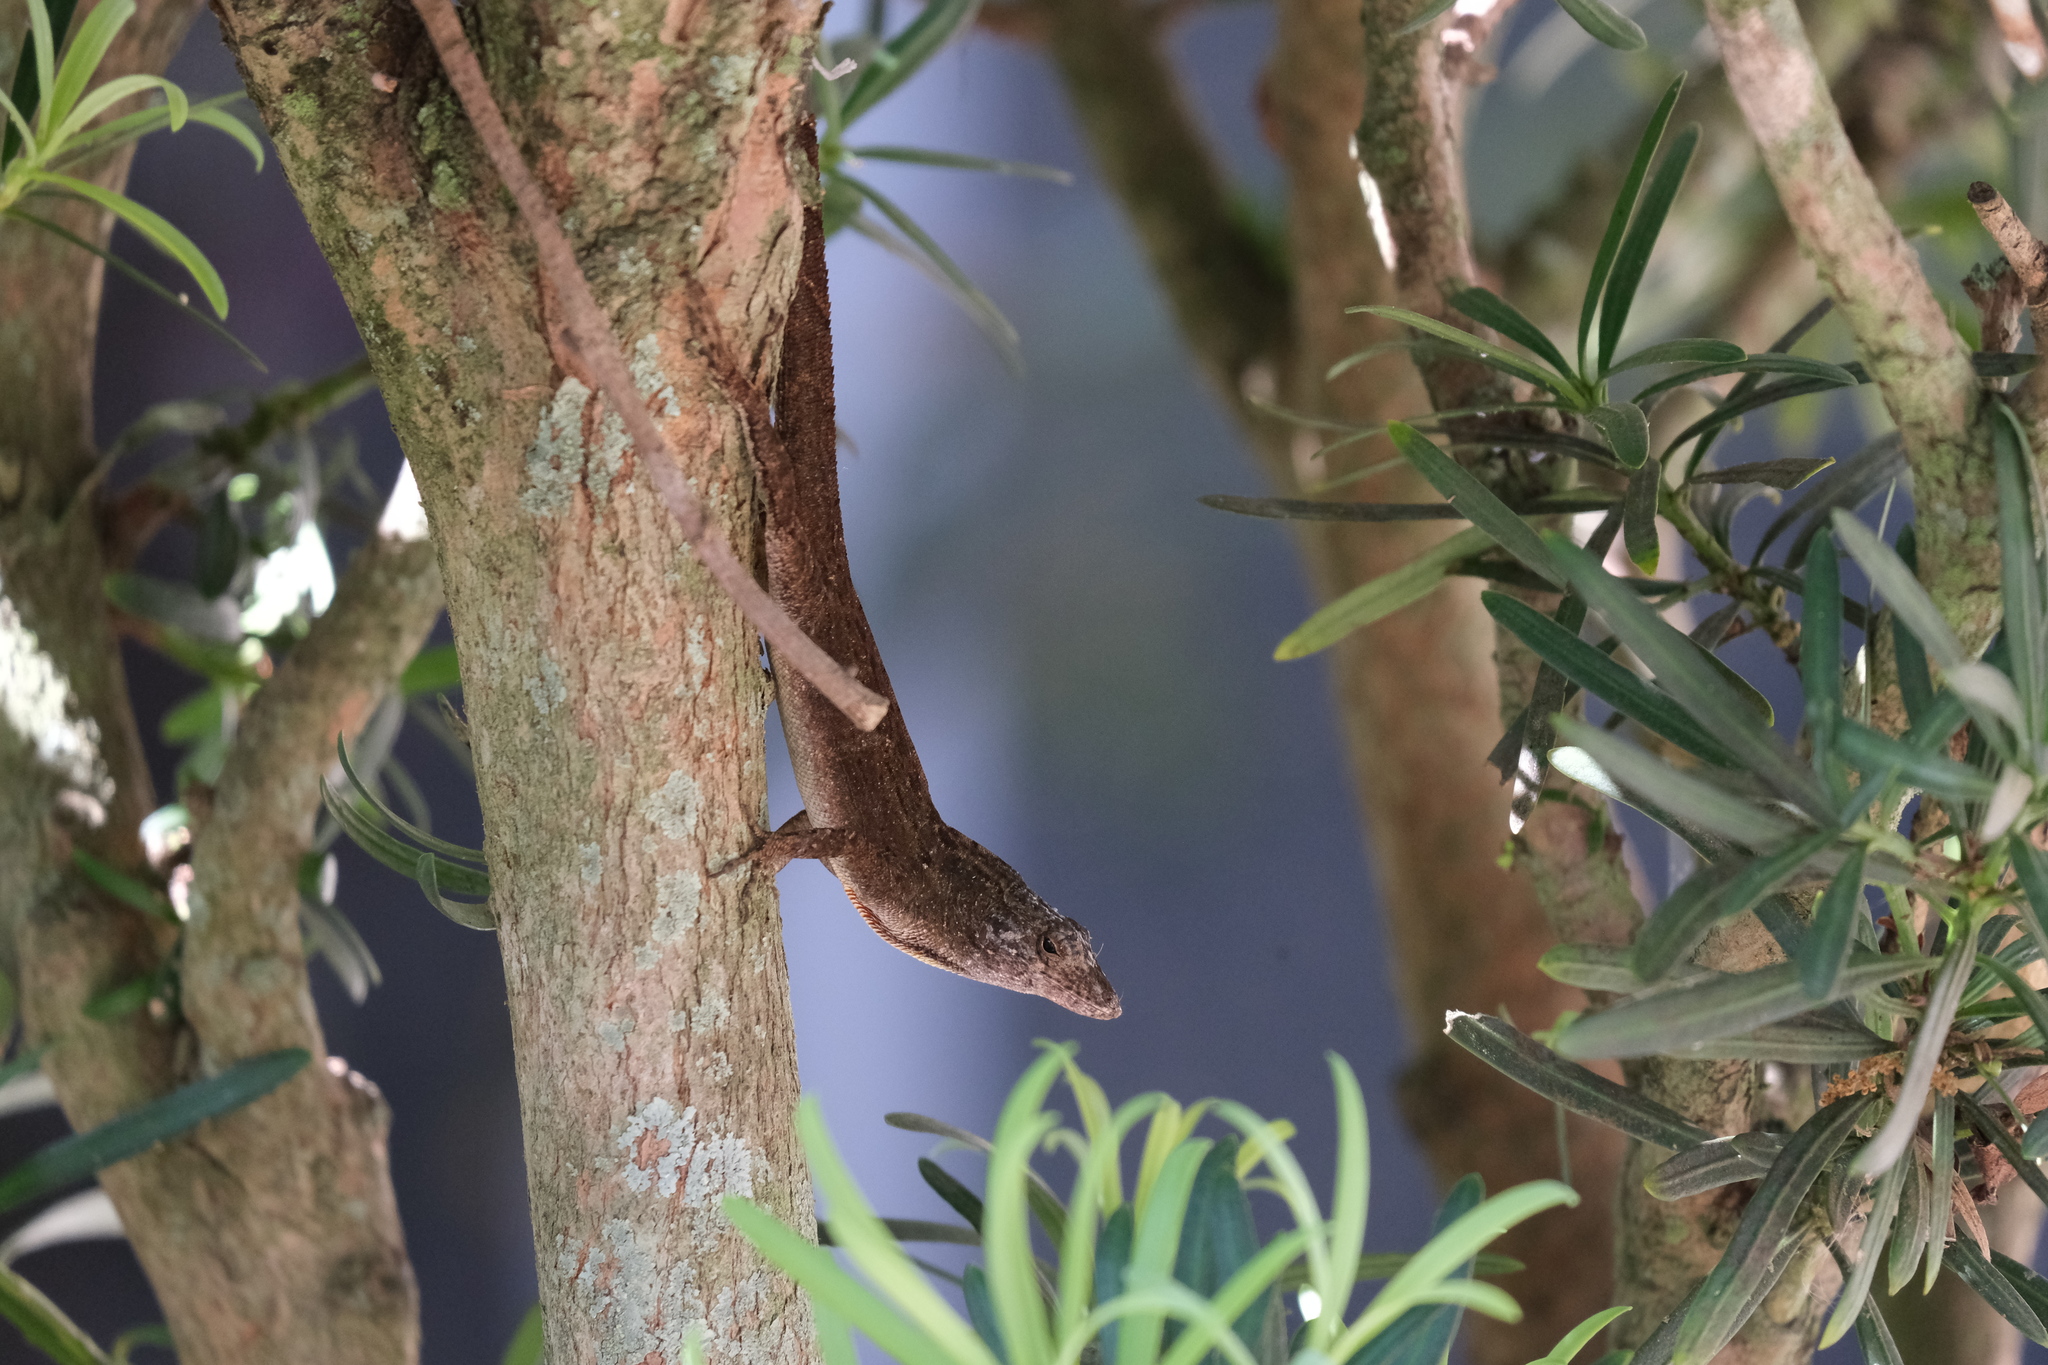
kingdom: Animalia
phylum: Chordata
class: Squamata
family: Dactyloidae
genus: Anolis
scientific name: Anolis sagrei
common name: Brown anole
